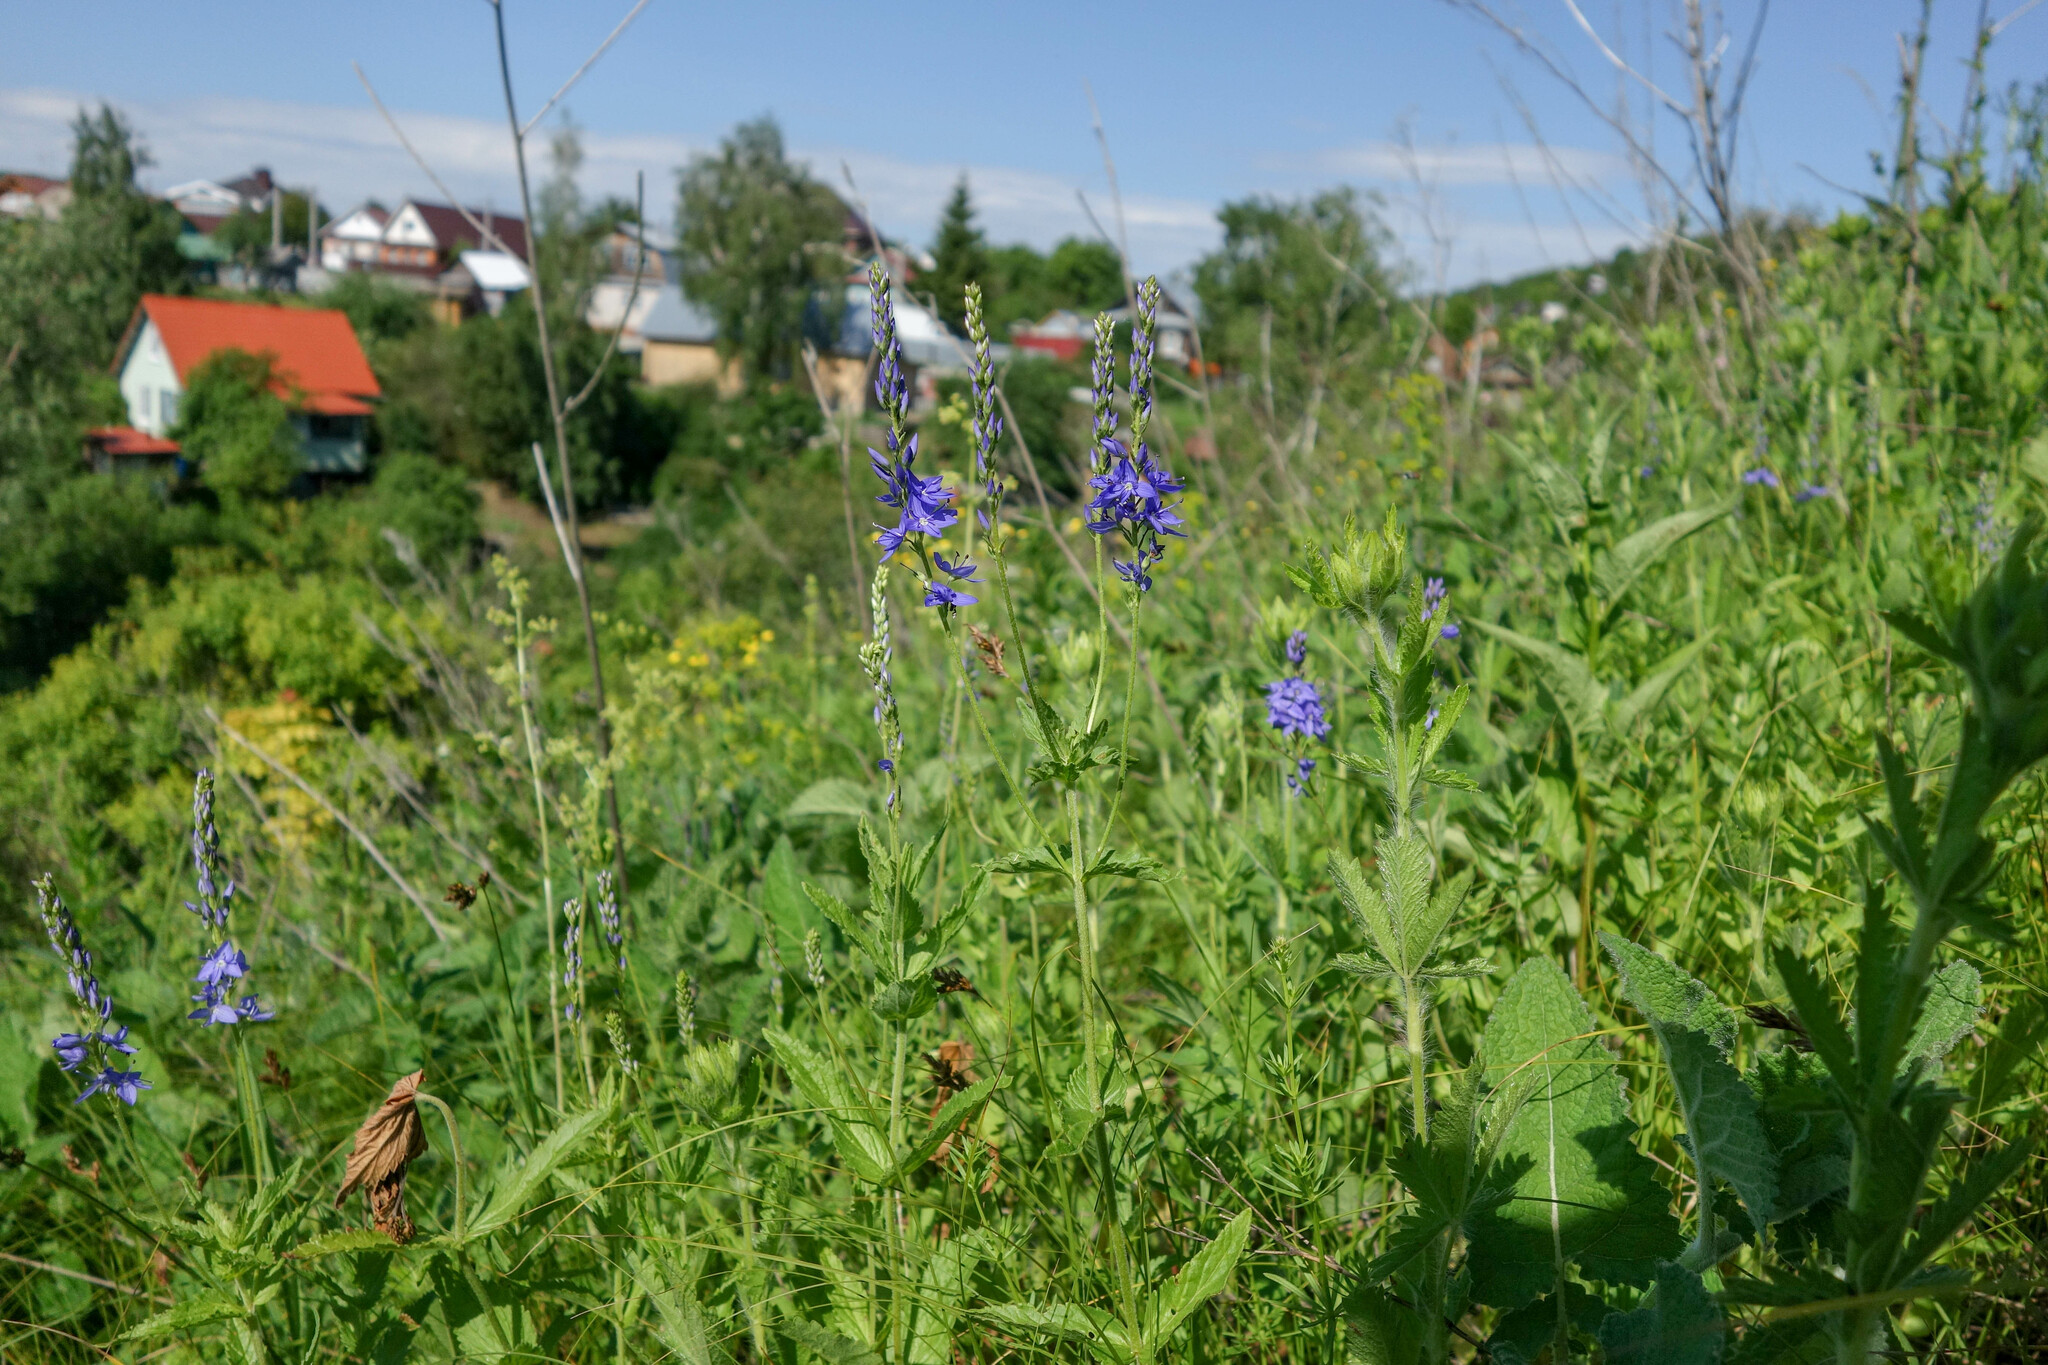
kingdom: Plantae
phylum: Tracheophyta
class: Magnoliopsida
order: Lamiales
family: Plantaginaceae
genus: Veronica
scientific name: Veronica teucrium
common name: Large speedwell
